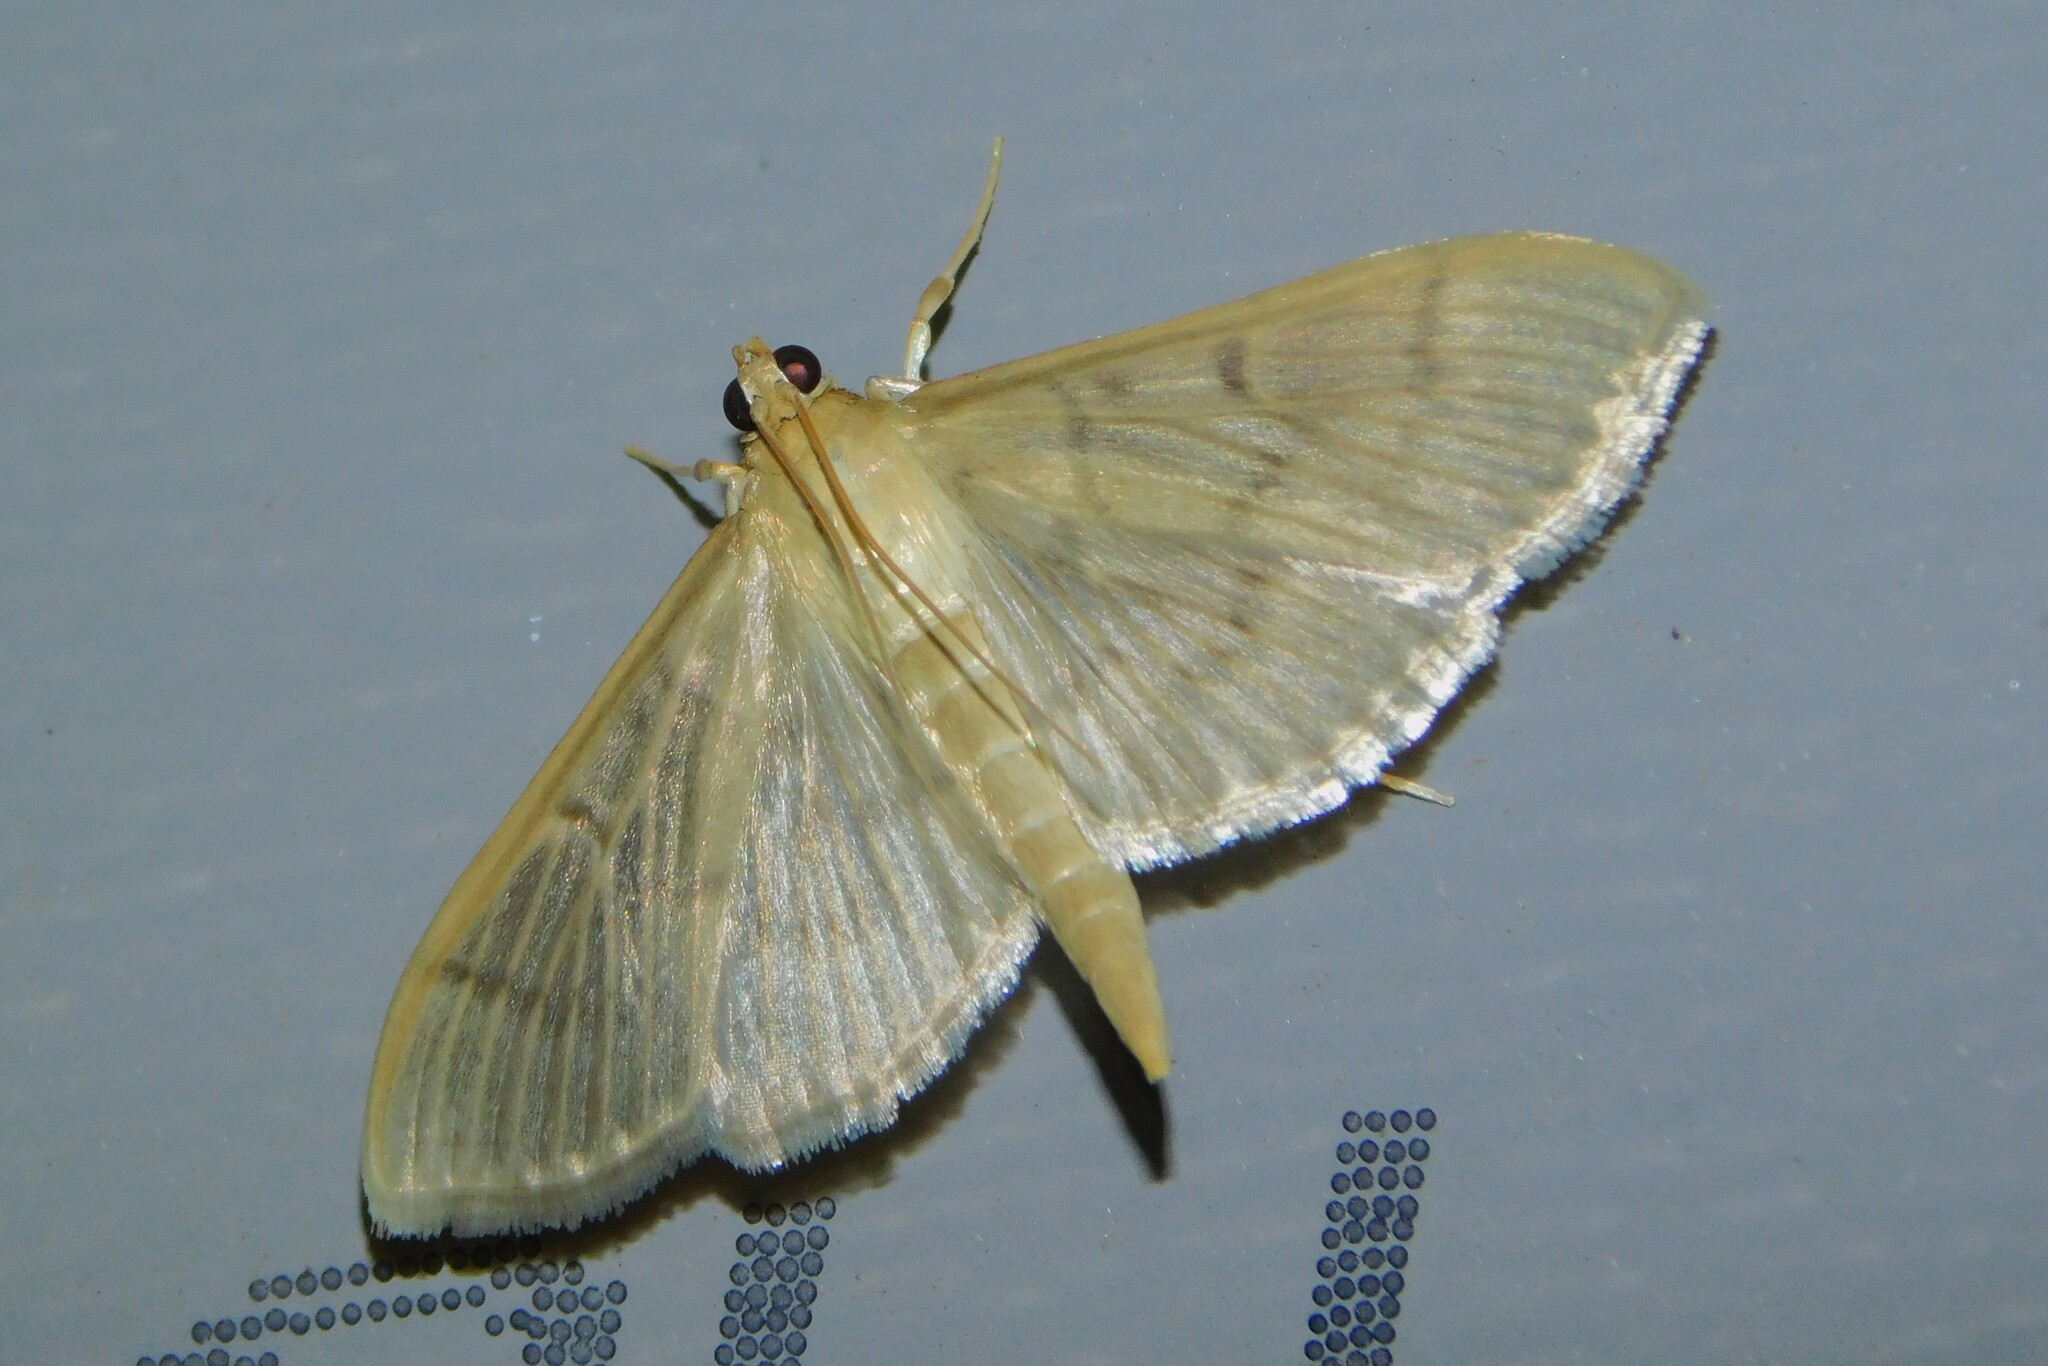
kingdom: Animalia
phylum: Arthropoda
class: Insecta
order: Lepidoptera
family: Crambidae
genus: Lamprophaia
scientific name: Lamprophaia ablactalis
